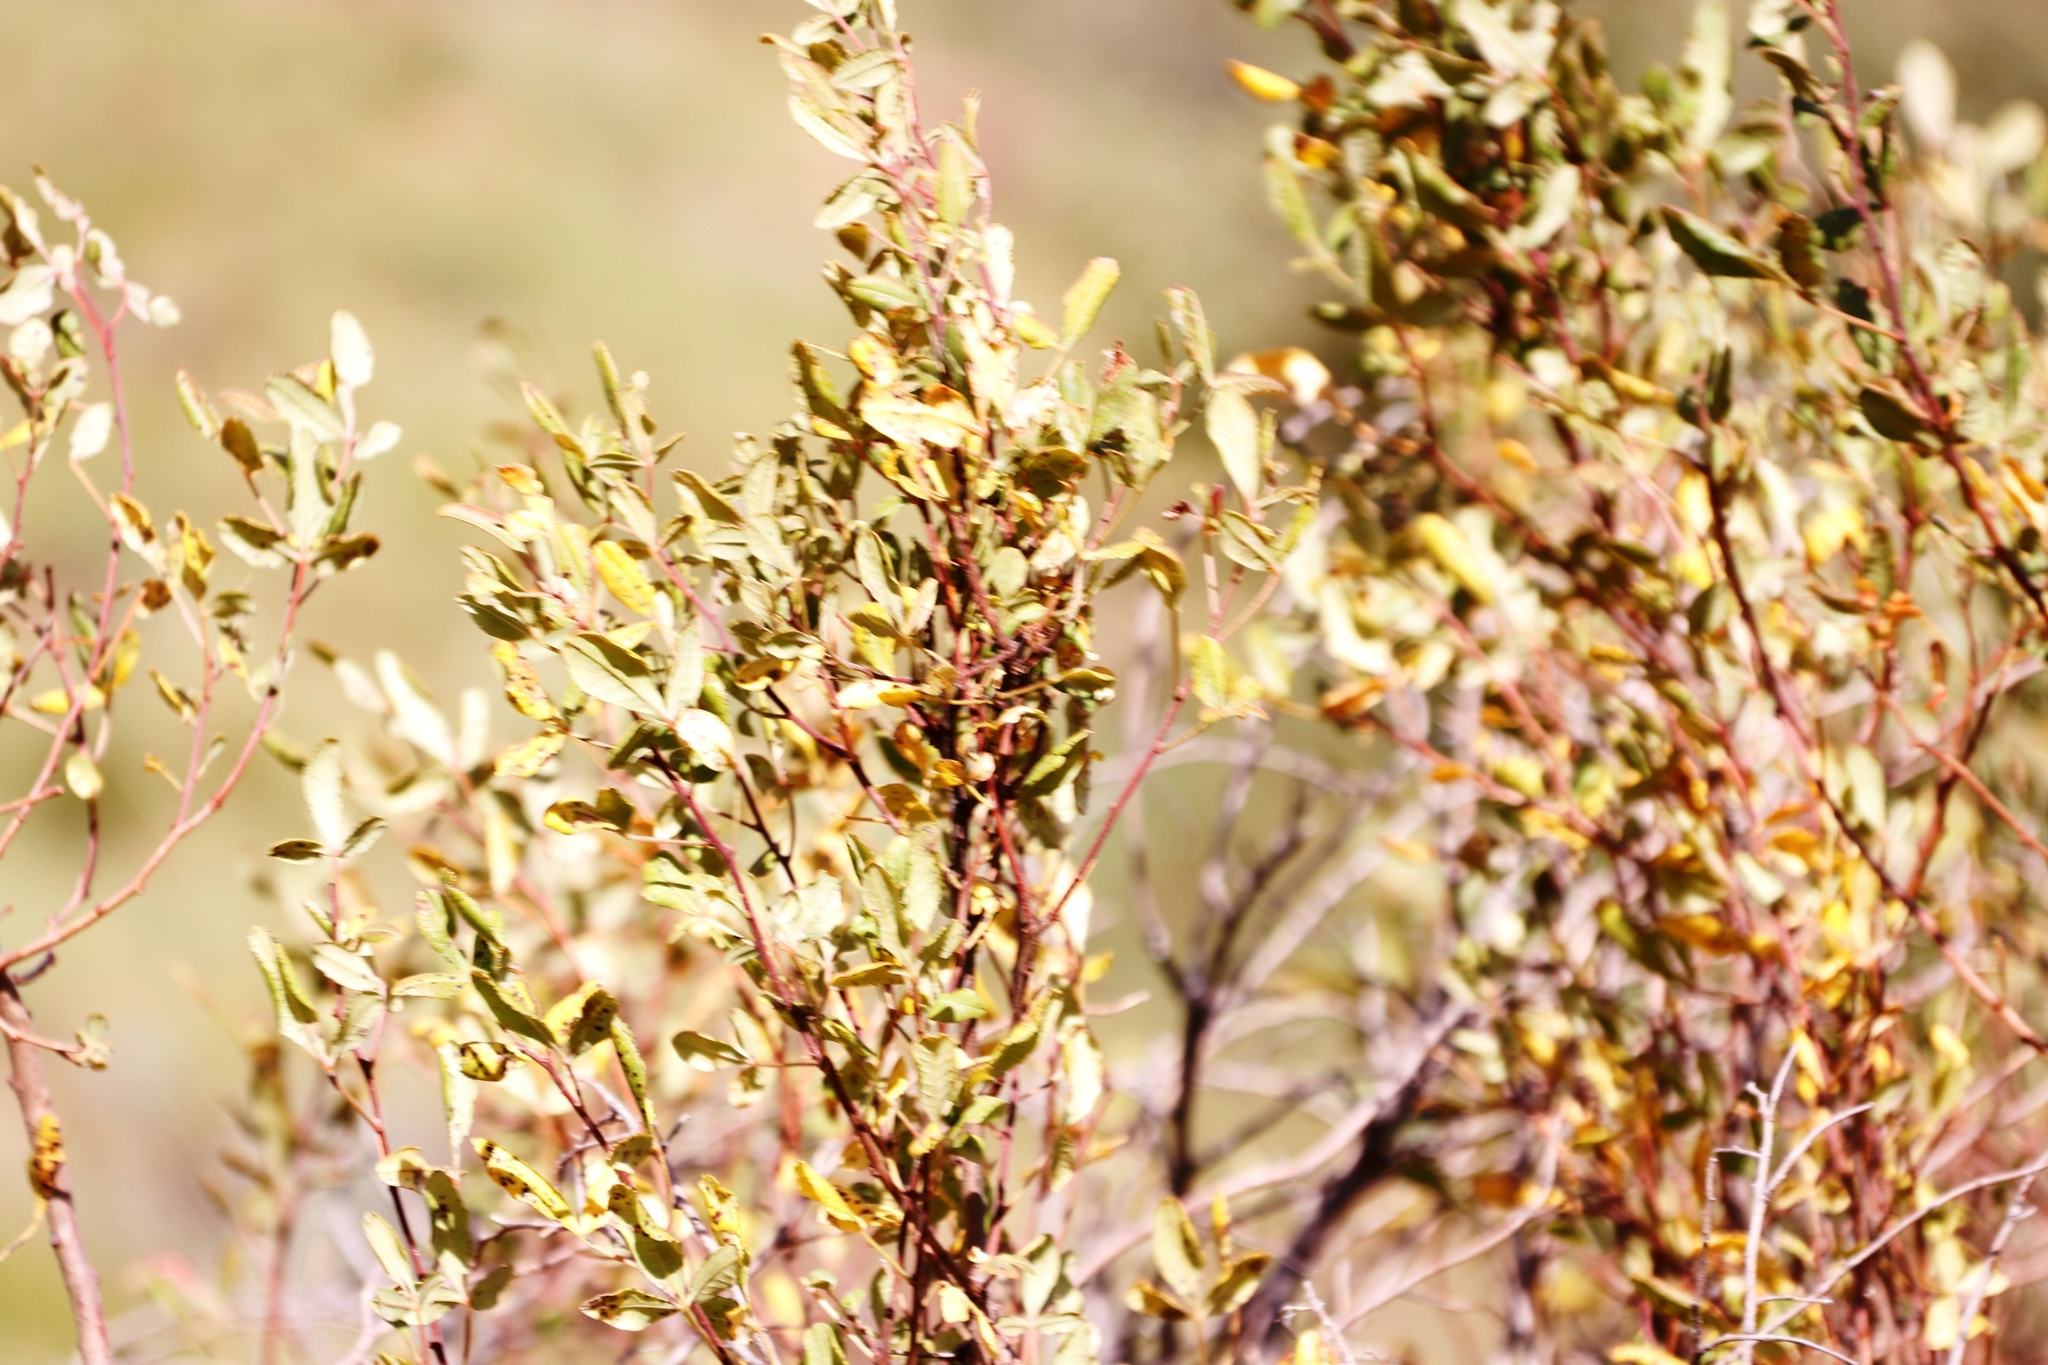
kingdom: Plantae
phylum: Tracheophyta
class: Magnoliopsida
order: Sapindales
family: Anacardiaceae
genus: Searsia
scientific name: Searsia divaricata
